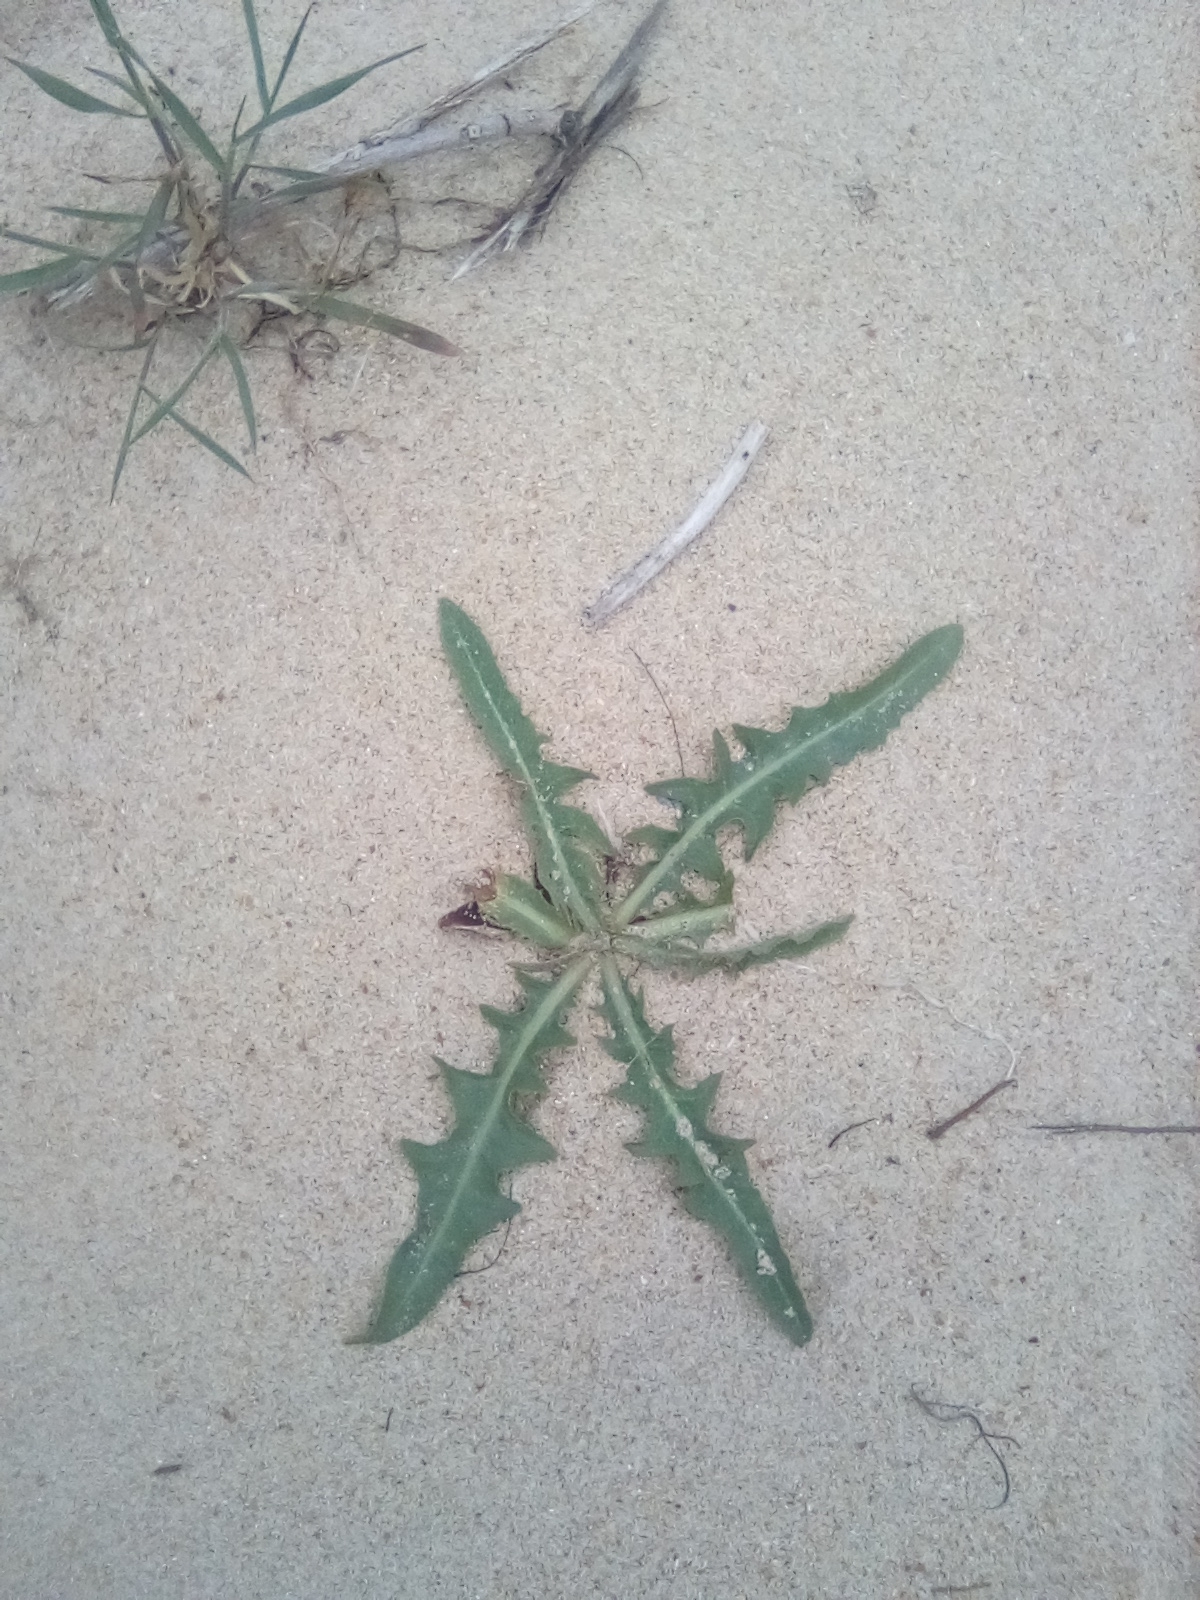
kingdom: Plantae
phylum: Tracheophyta
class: Magnoliopsida
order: Asterales
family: Asteraceae
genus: Lactuca
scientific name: Lactuca tatarica
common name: Blue lettuce
